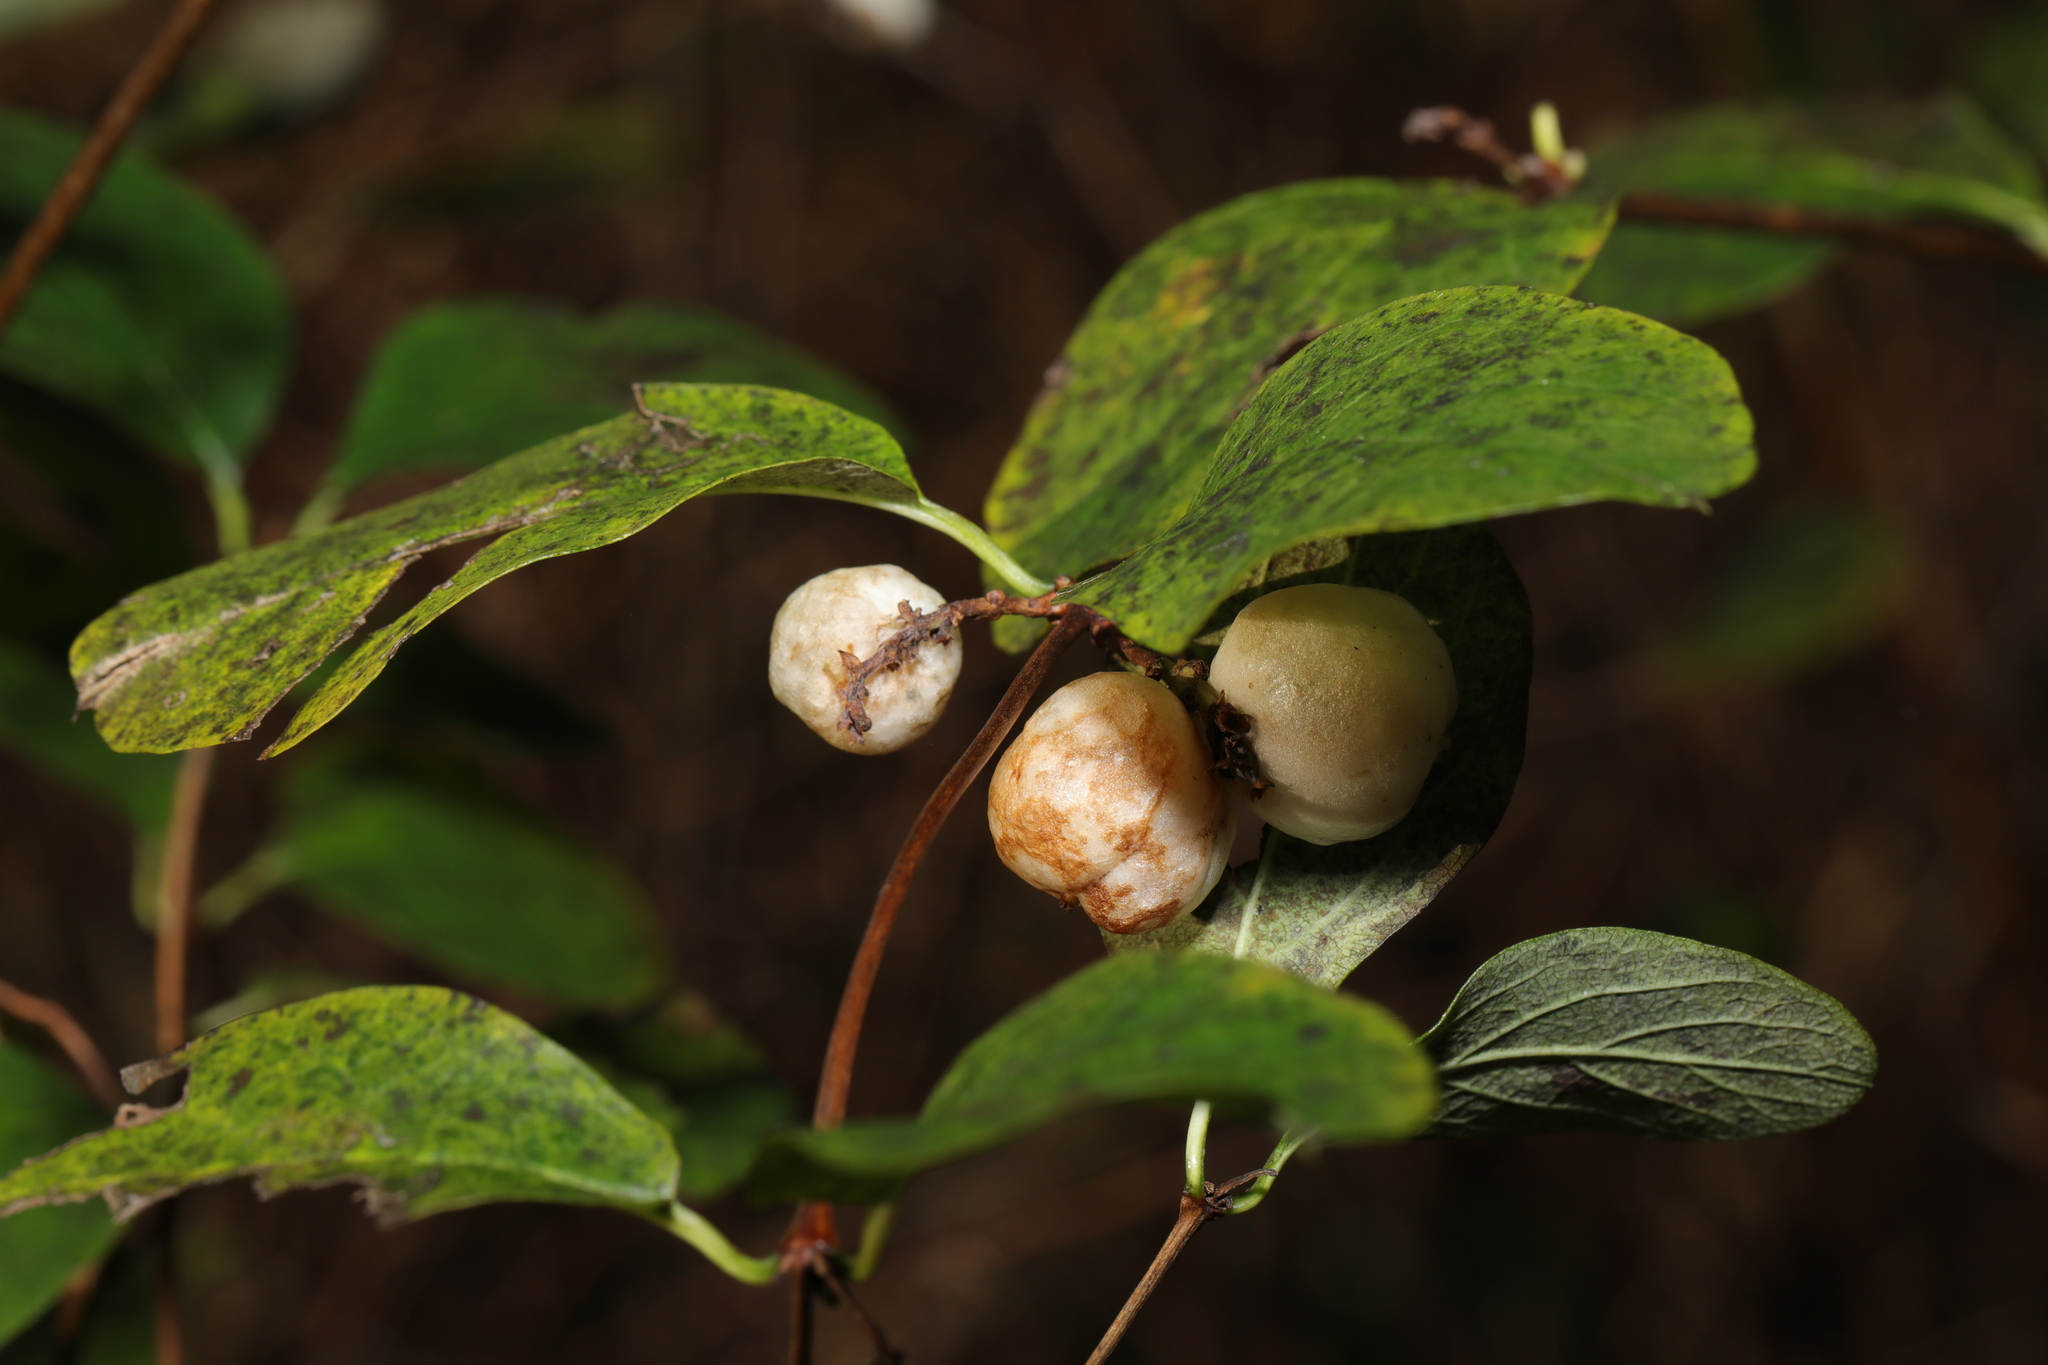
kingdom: Plantae
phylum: Tracheophyta
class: Magnoliopsida
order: Dipsacales
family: Caprifoliaceae
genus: Symphoricarpos
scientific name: Symphoricarpos albus
